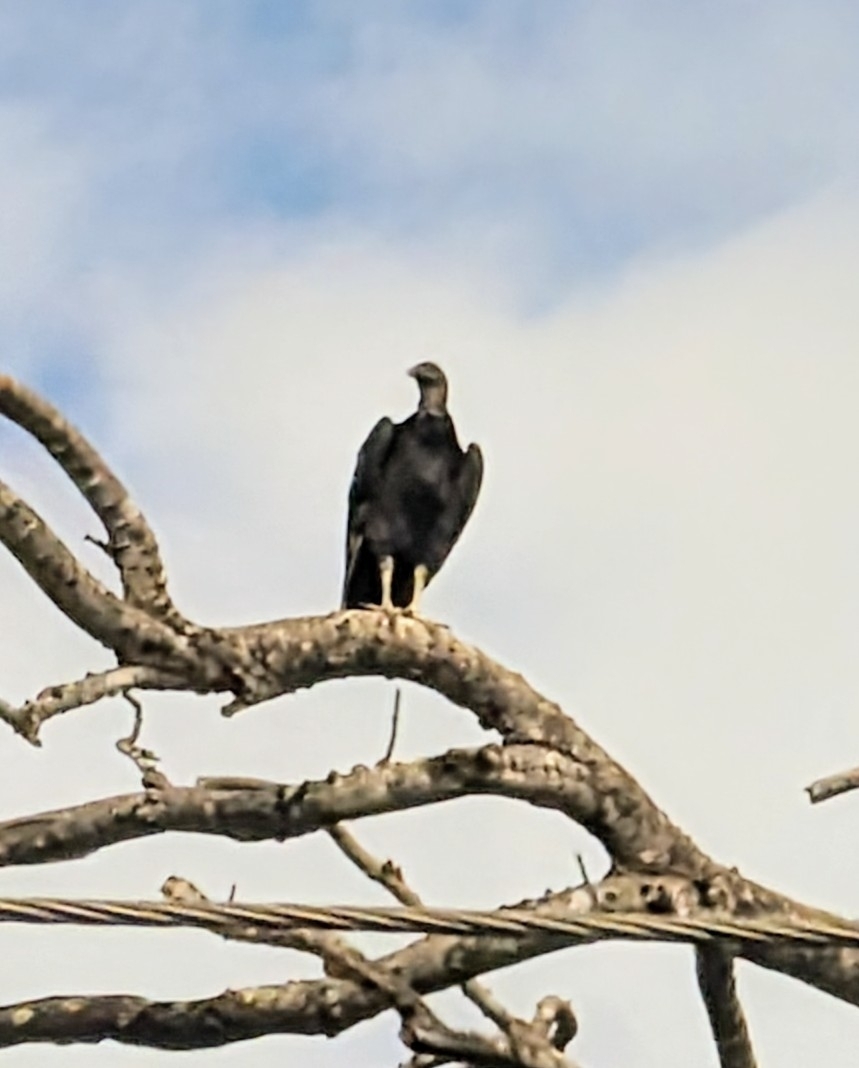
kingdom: Animalia
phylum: Chordata
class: Aves
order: Accipitriformes
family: Cathartidae
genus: Coragyps
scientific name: Coragyps atratus
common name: Black vulture
